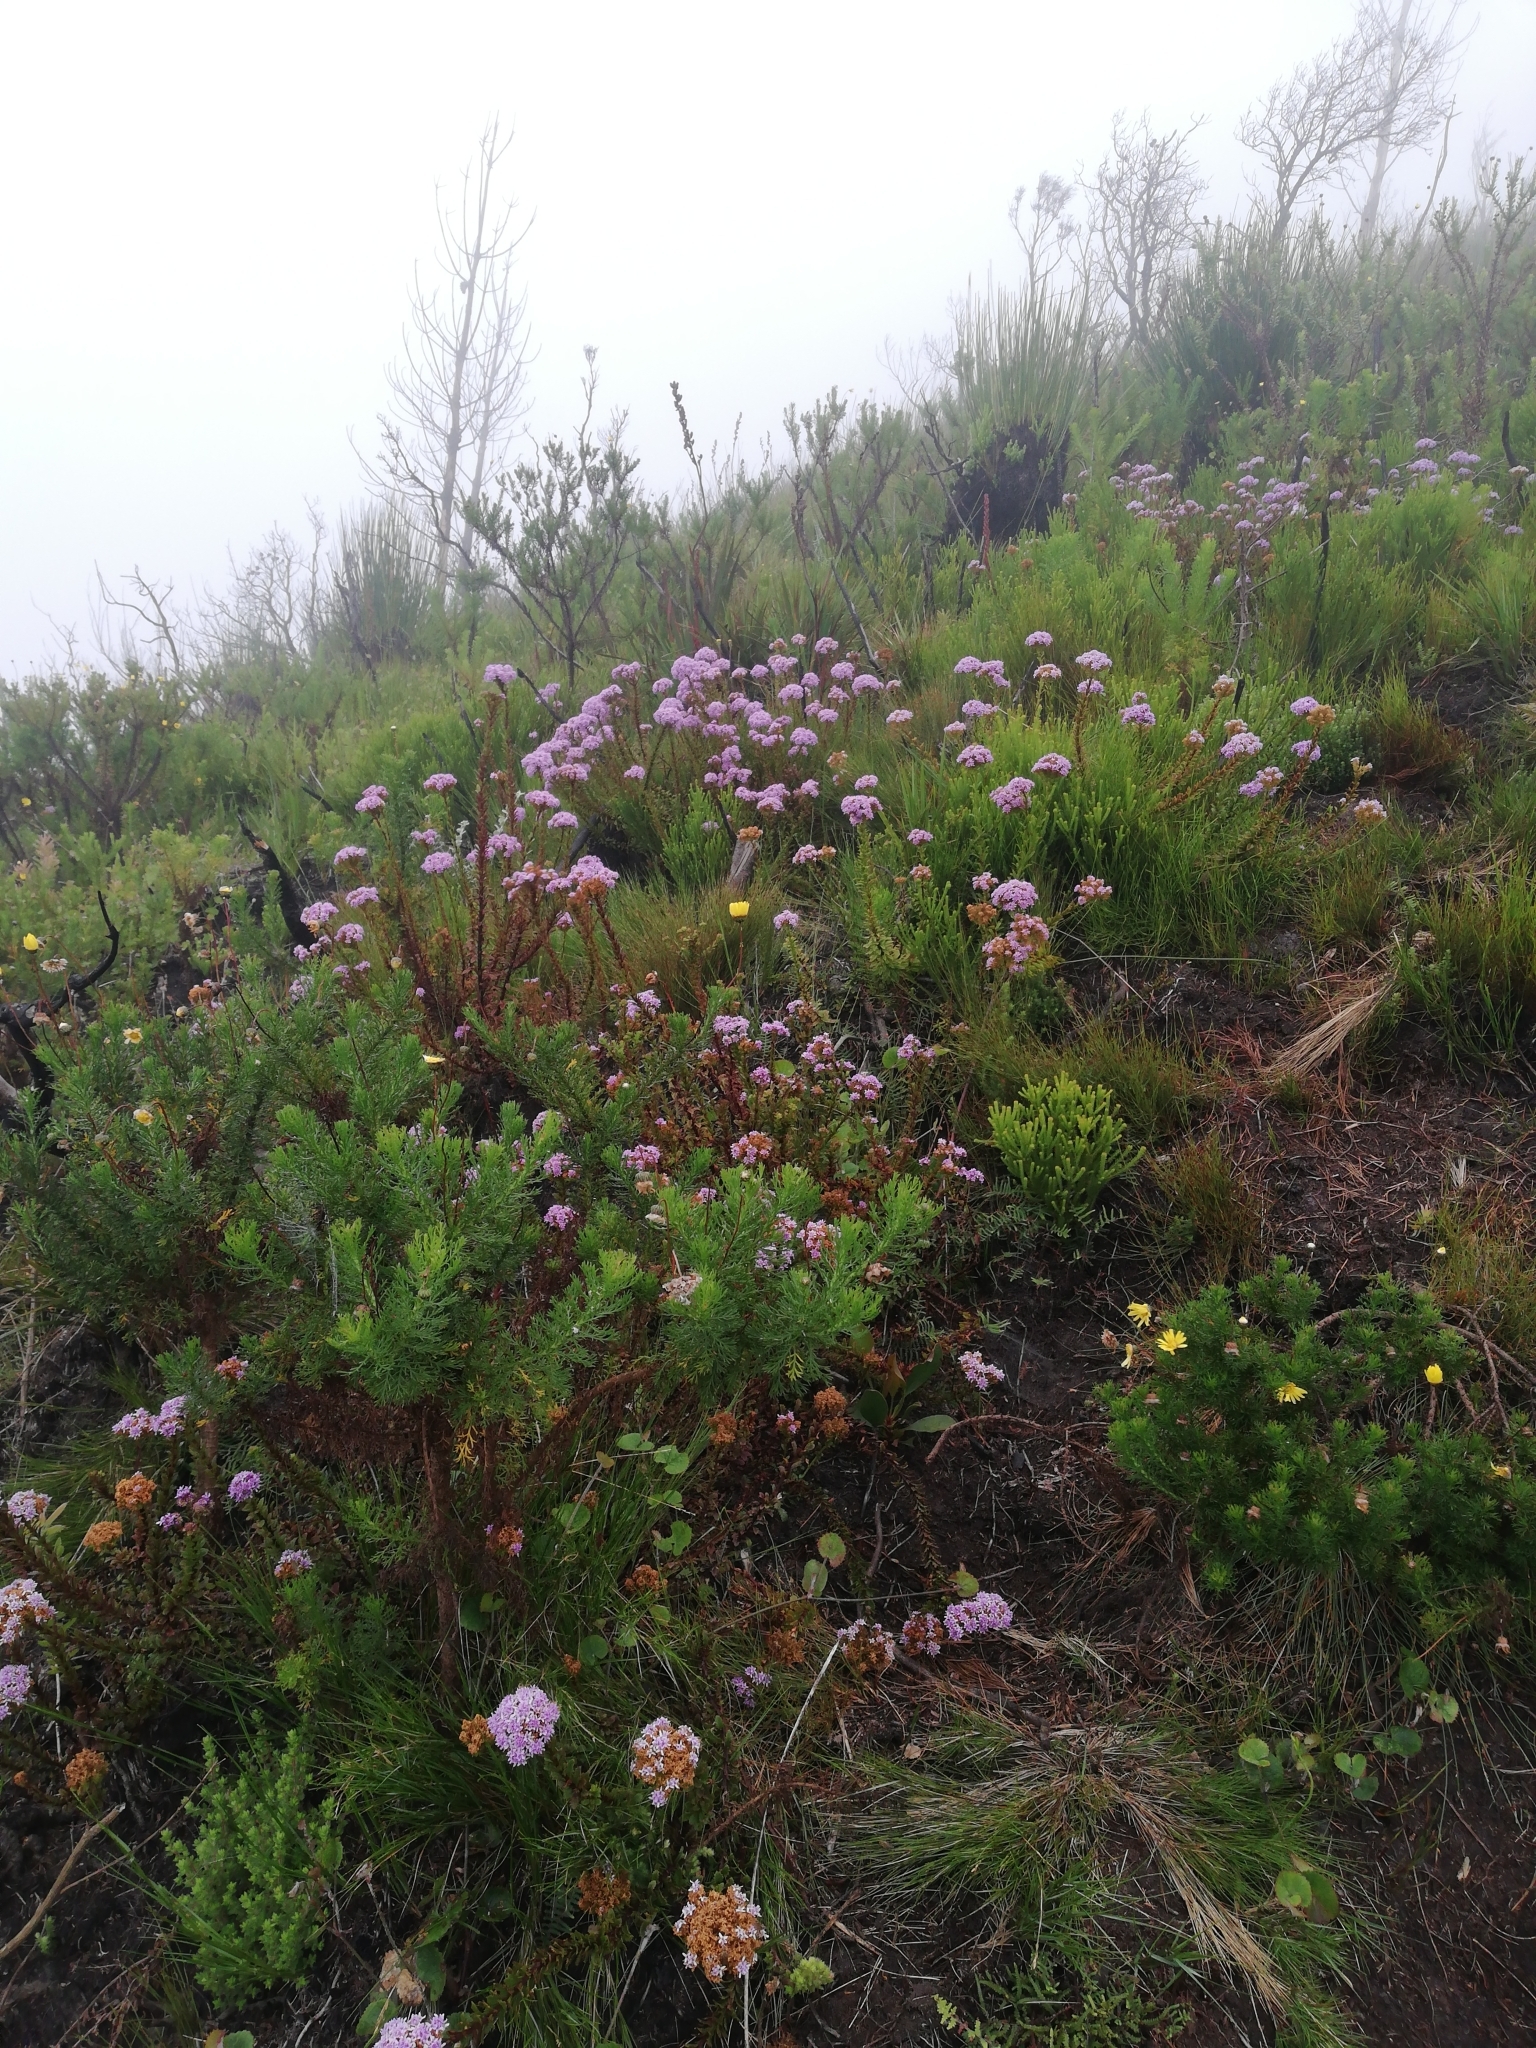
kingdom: Plantae
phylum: Tracheophyta
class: Magnoliopsida
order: Lamiales
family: Scrophulariaceae
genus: Pseudoselago
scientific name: Pseudoselago langebergensis
